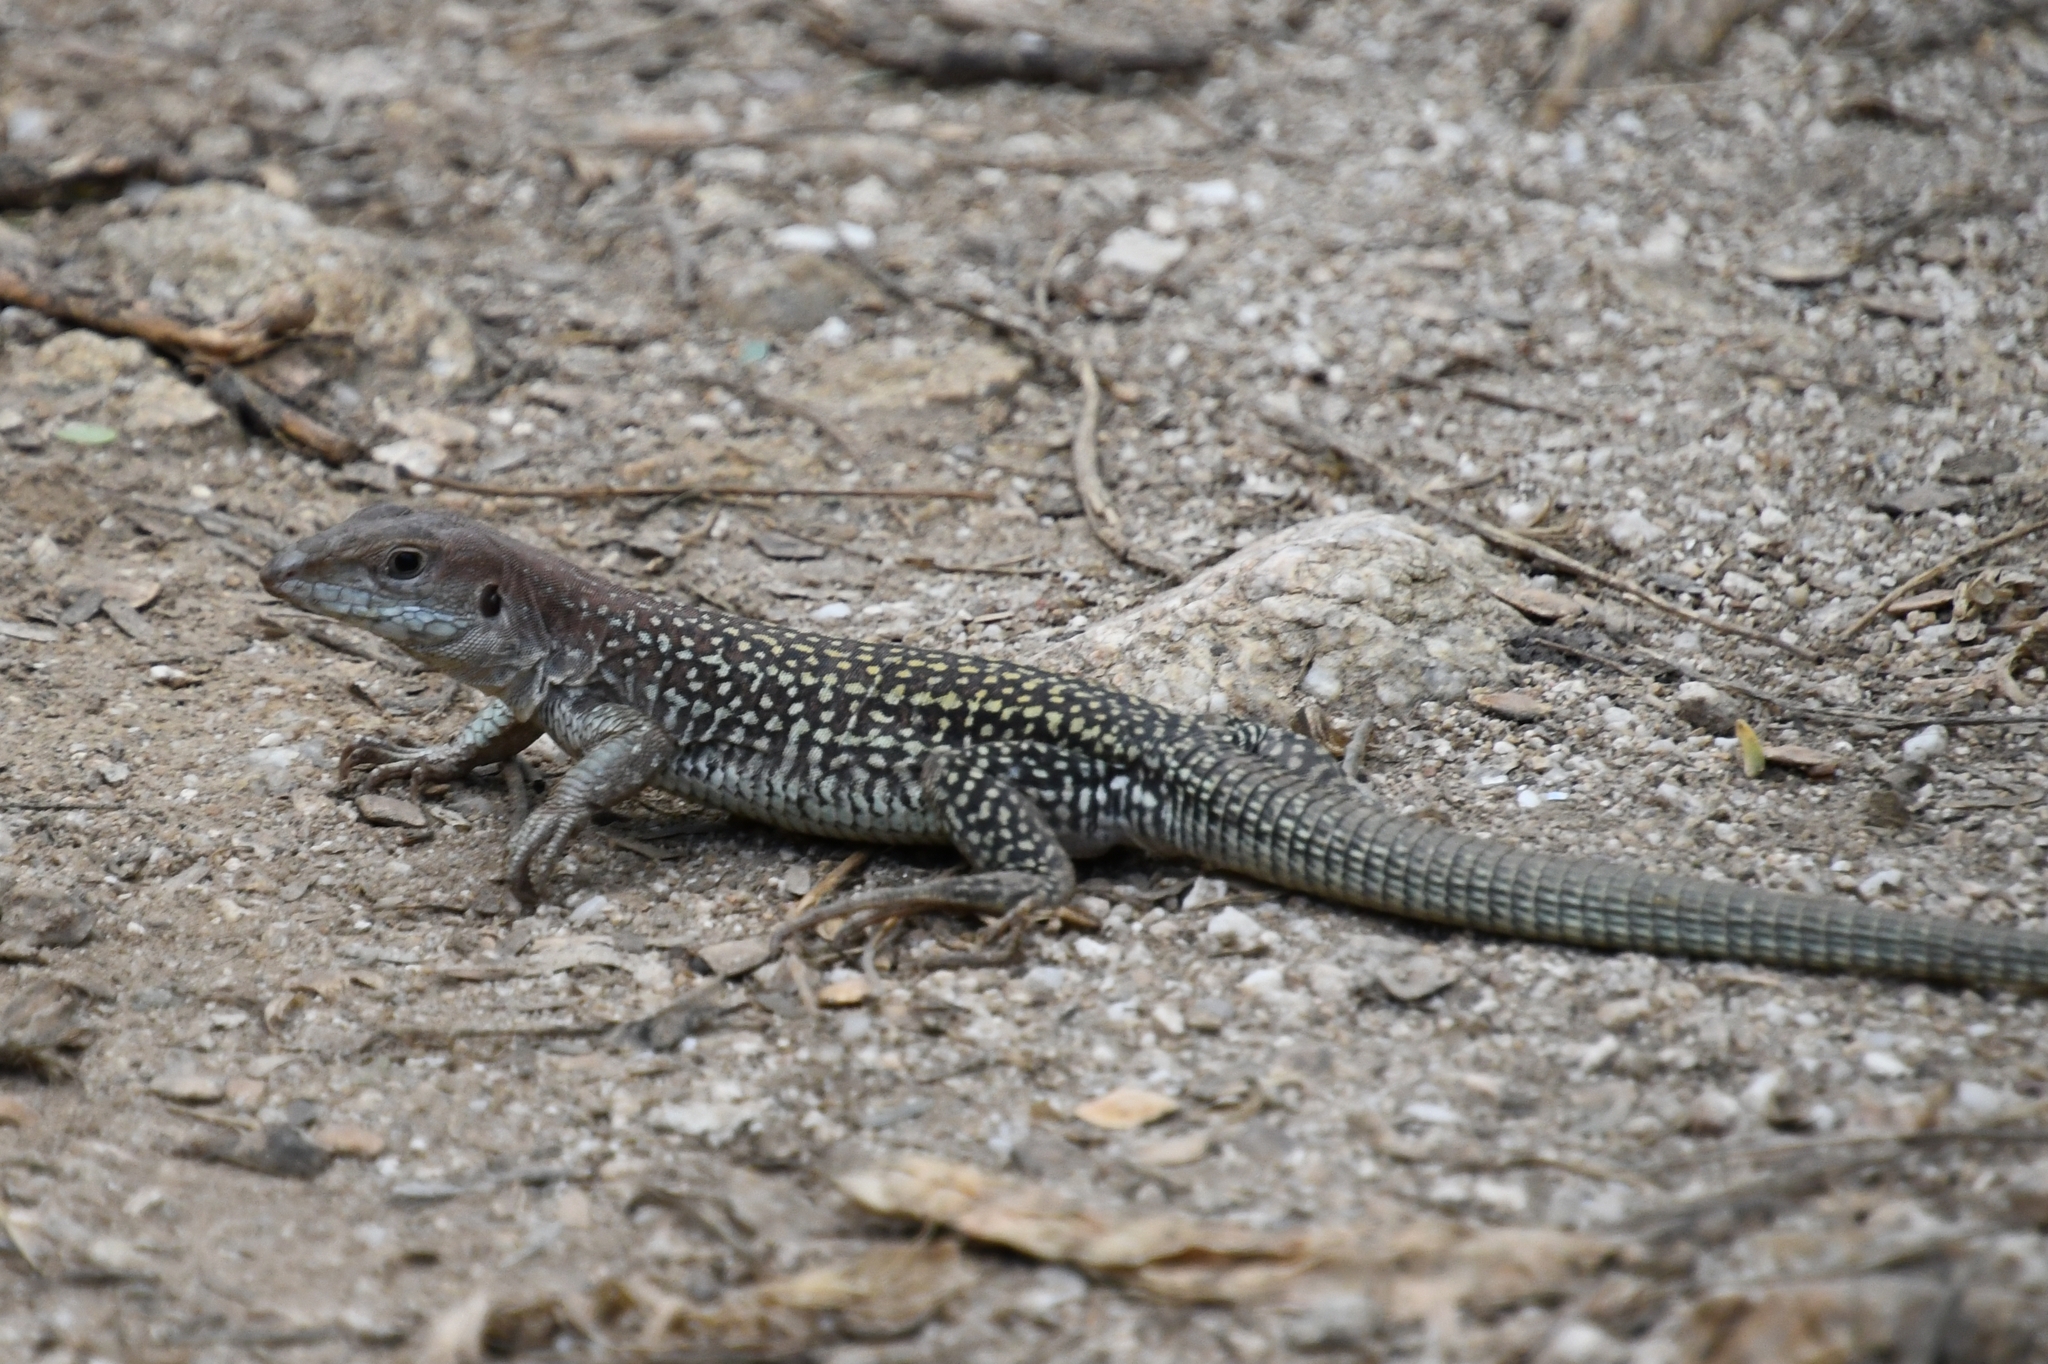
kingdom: Animalia
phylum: Chordata
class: Squamata
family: Teiidae
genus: Aspidoscelis
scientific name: Aspidoscelis stictogrammus
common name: Giant spotted whiptail
